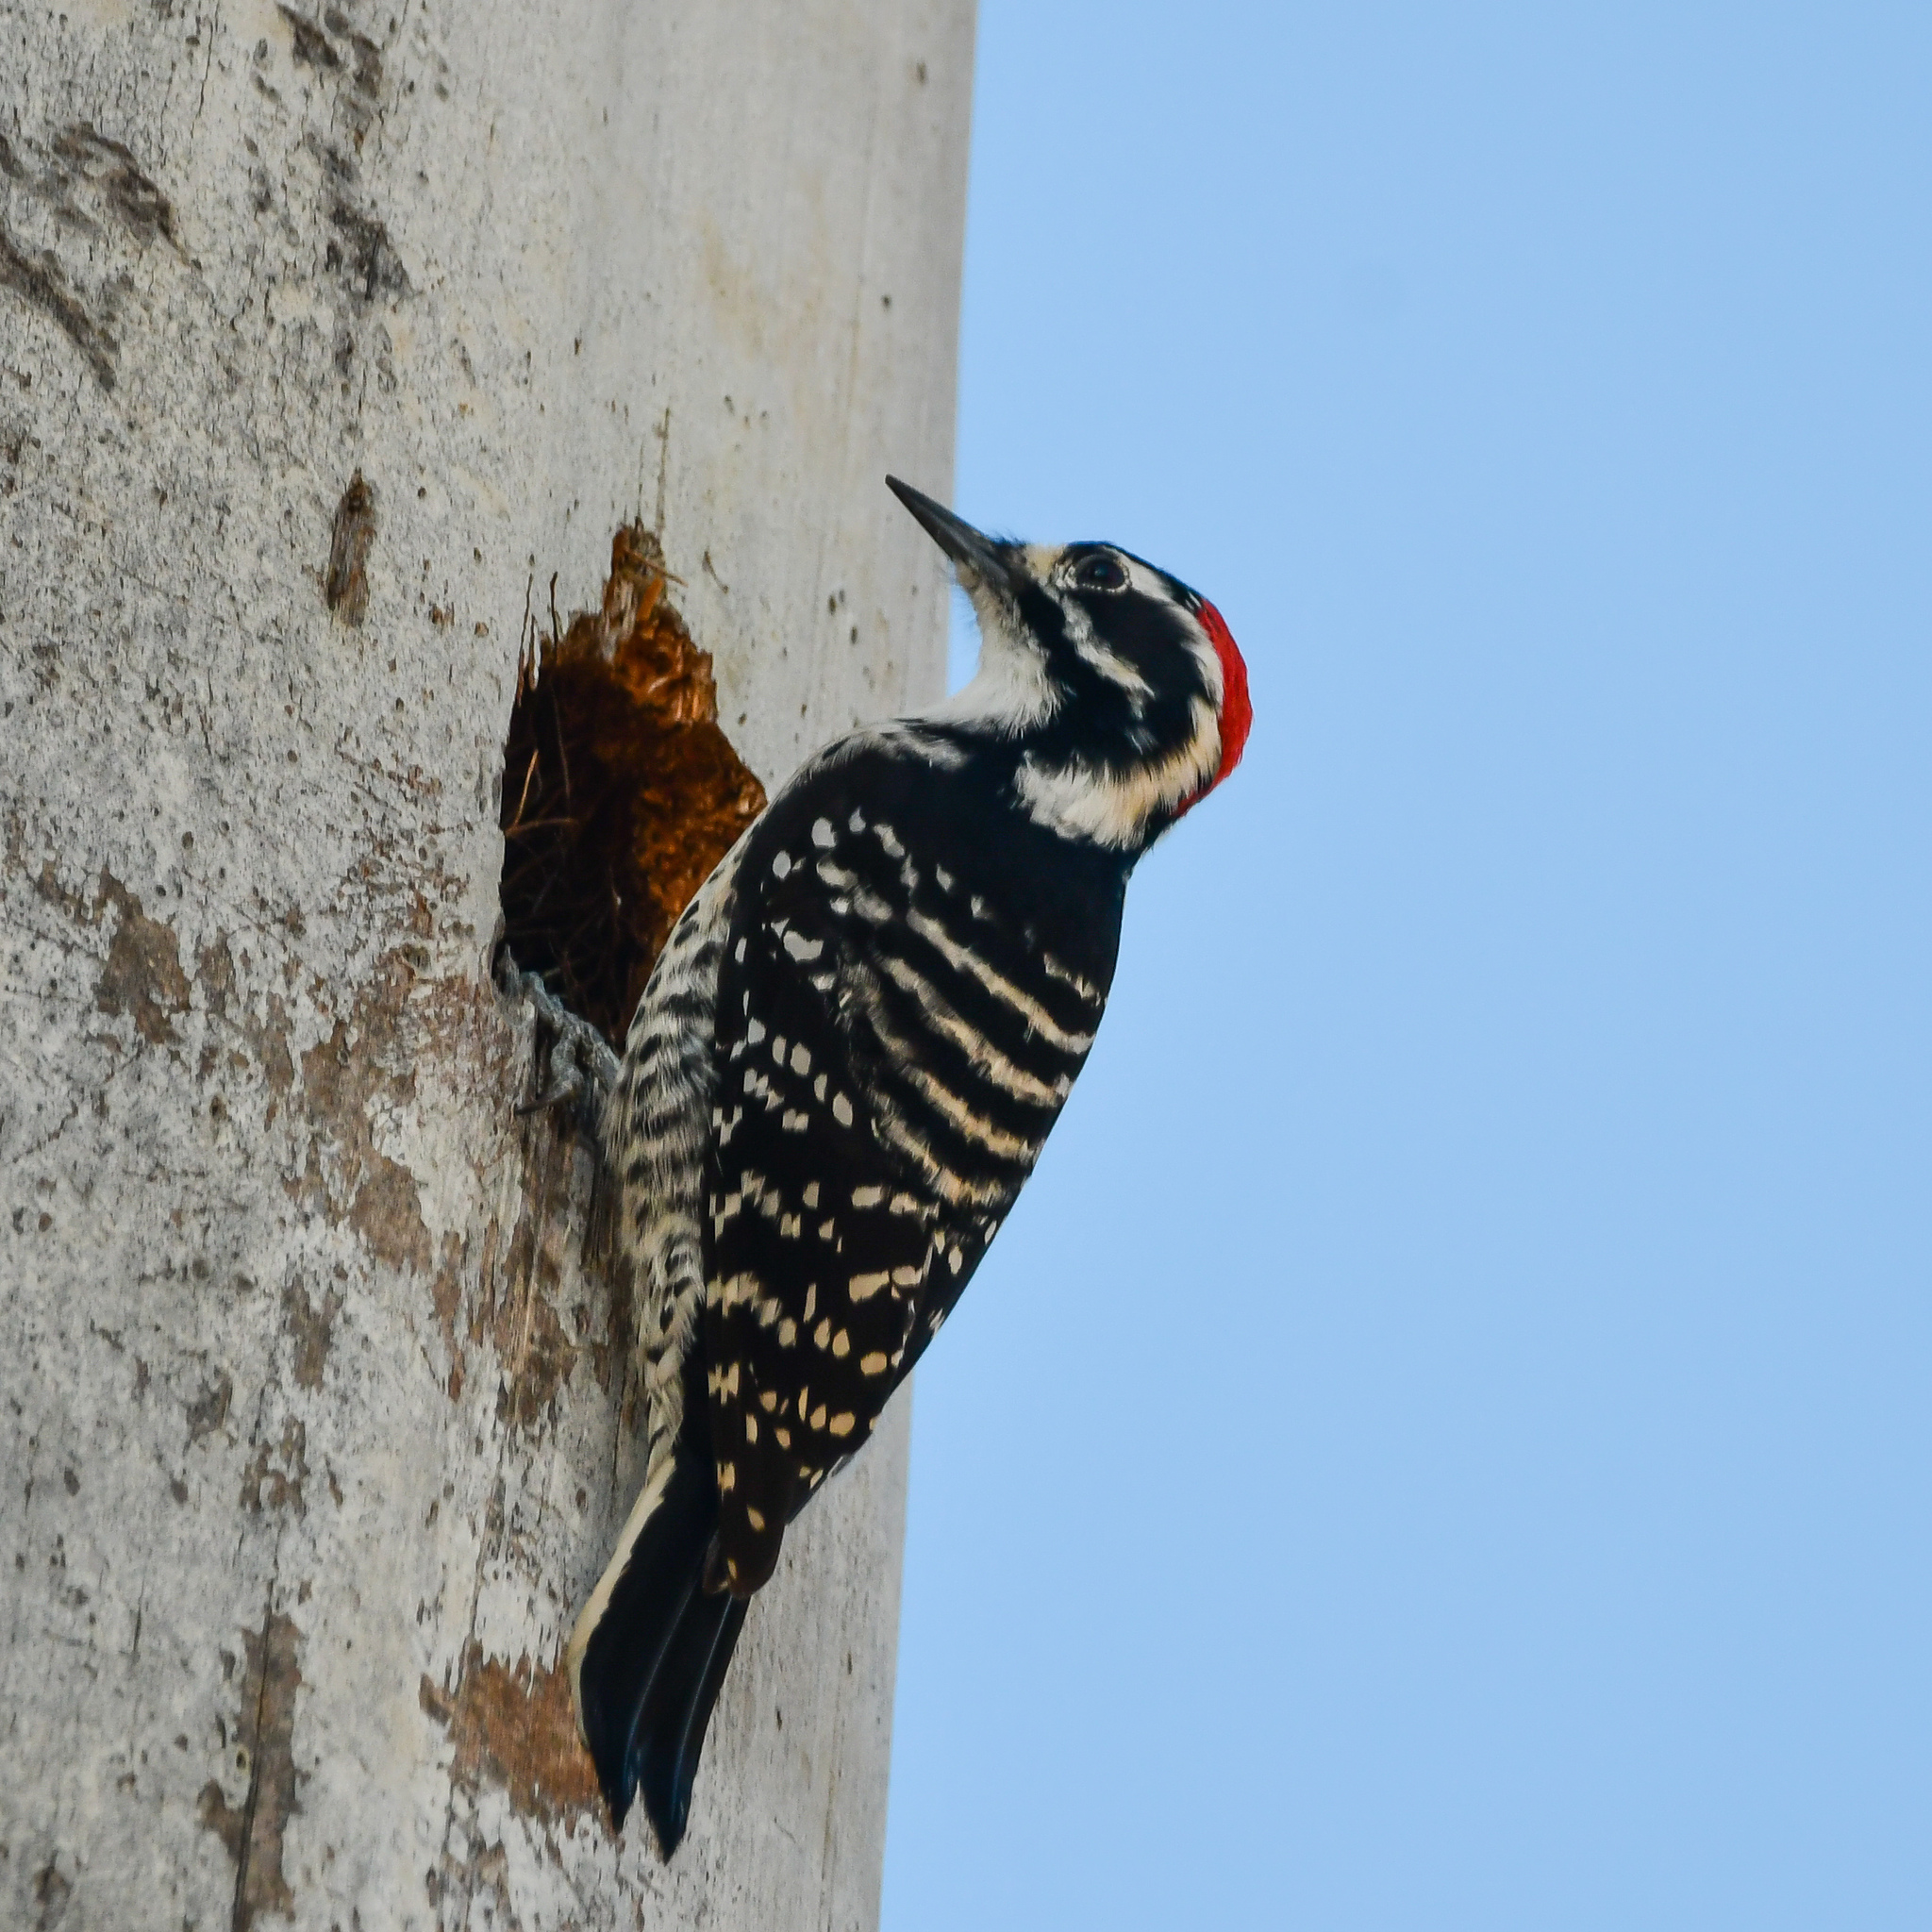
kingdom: Animalia
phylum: Chordata
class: Aves
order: Piciformes
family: Picidae
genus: Dryobates
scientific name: Dryobates nuttallii
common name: Nuttall's woodpecker
